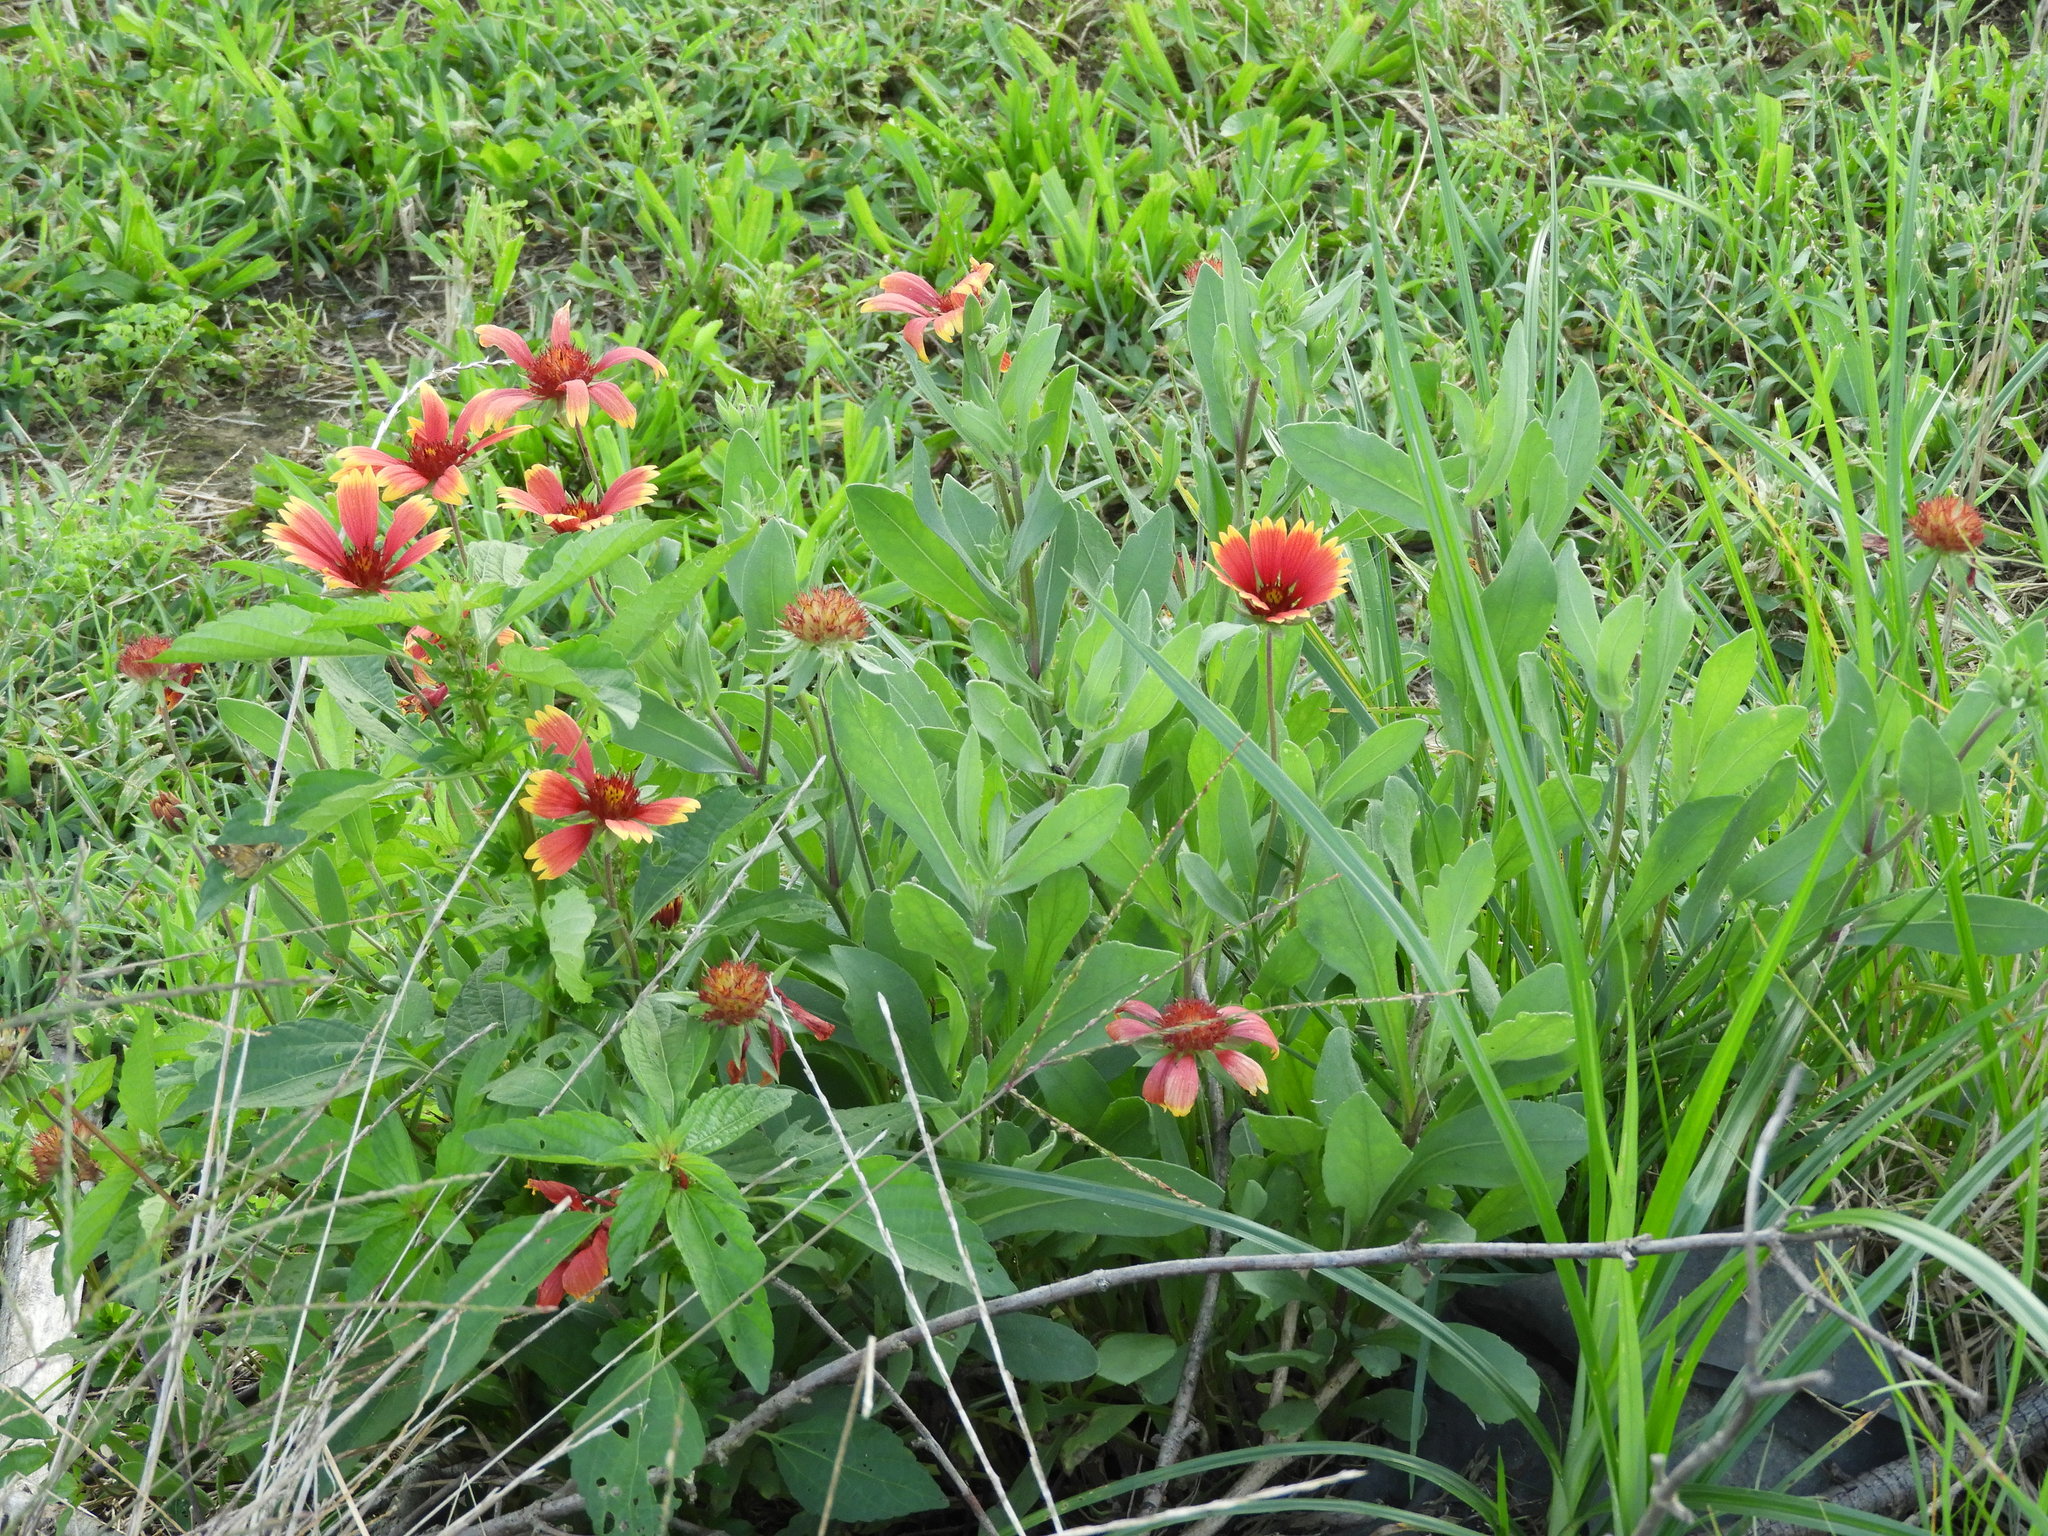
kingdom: Plantae
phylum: Tracheophyta
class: Magnoliopsida
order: Asterales
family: Asteraceae
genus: Gaillardia
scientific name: Gaillardia pulchella
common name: Firewheel
